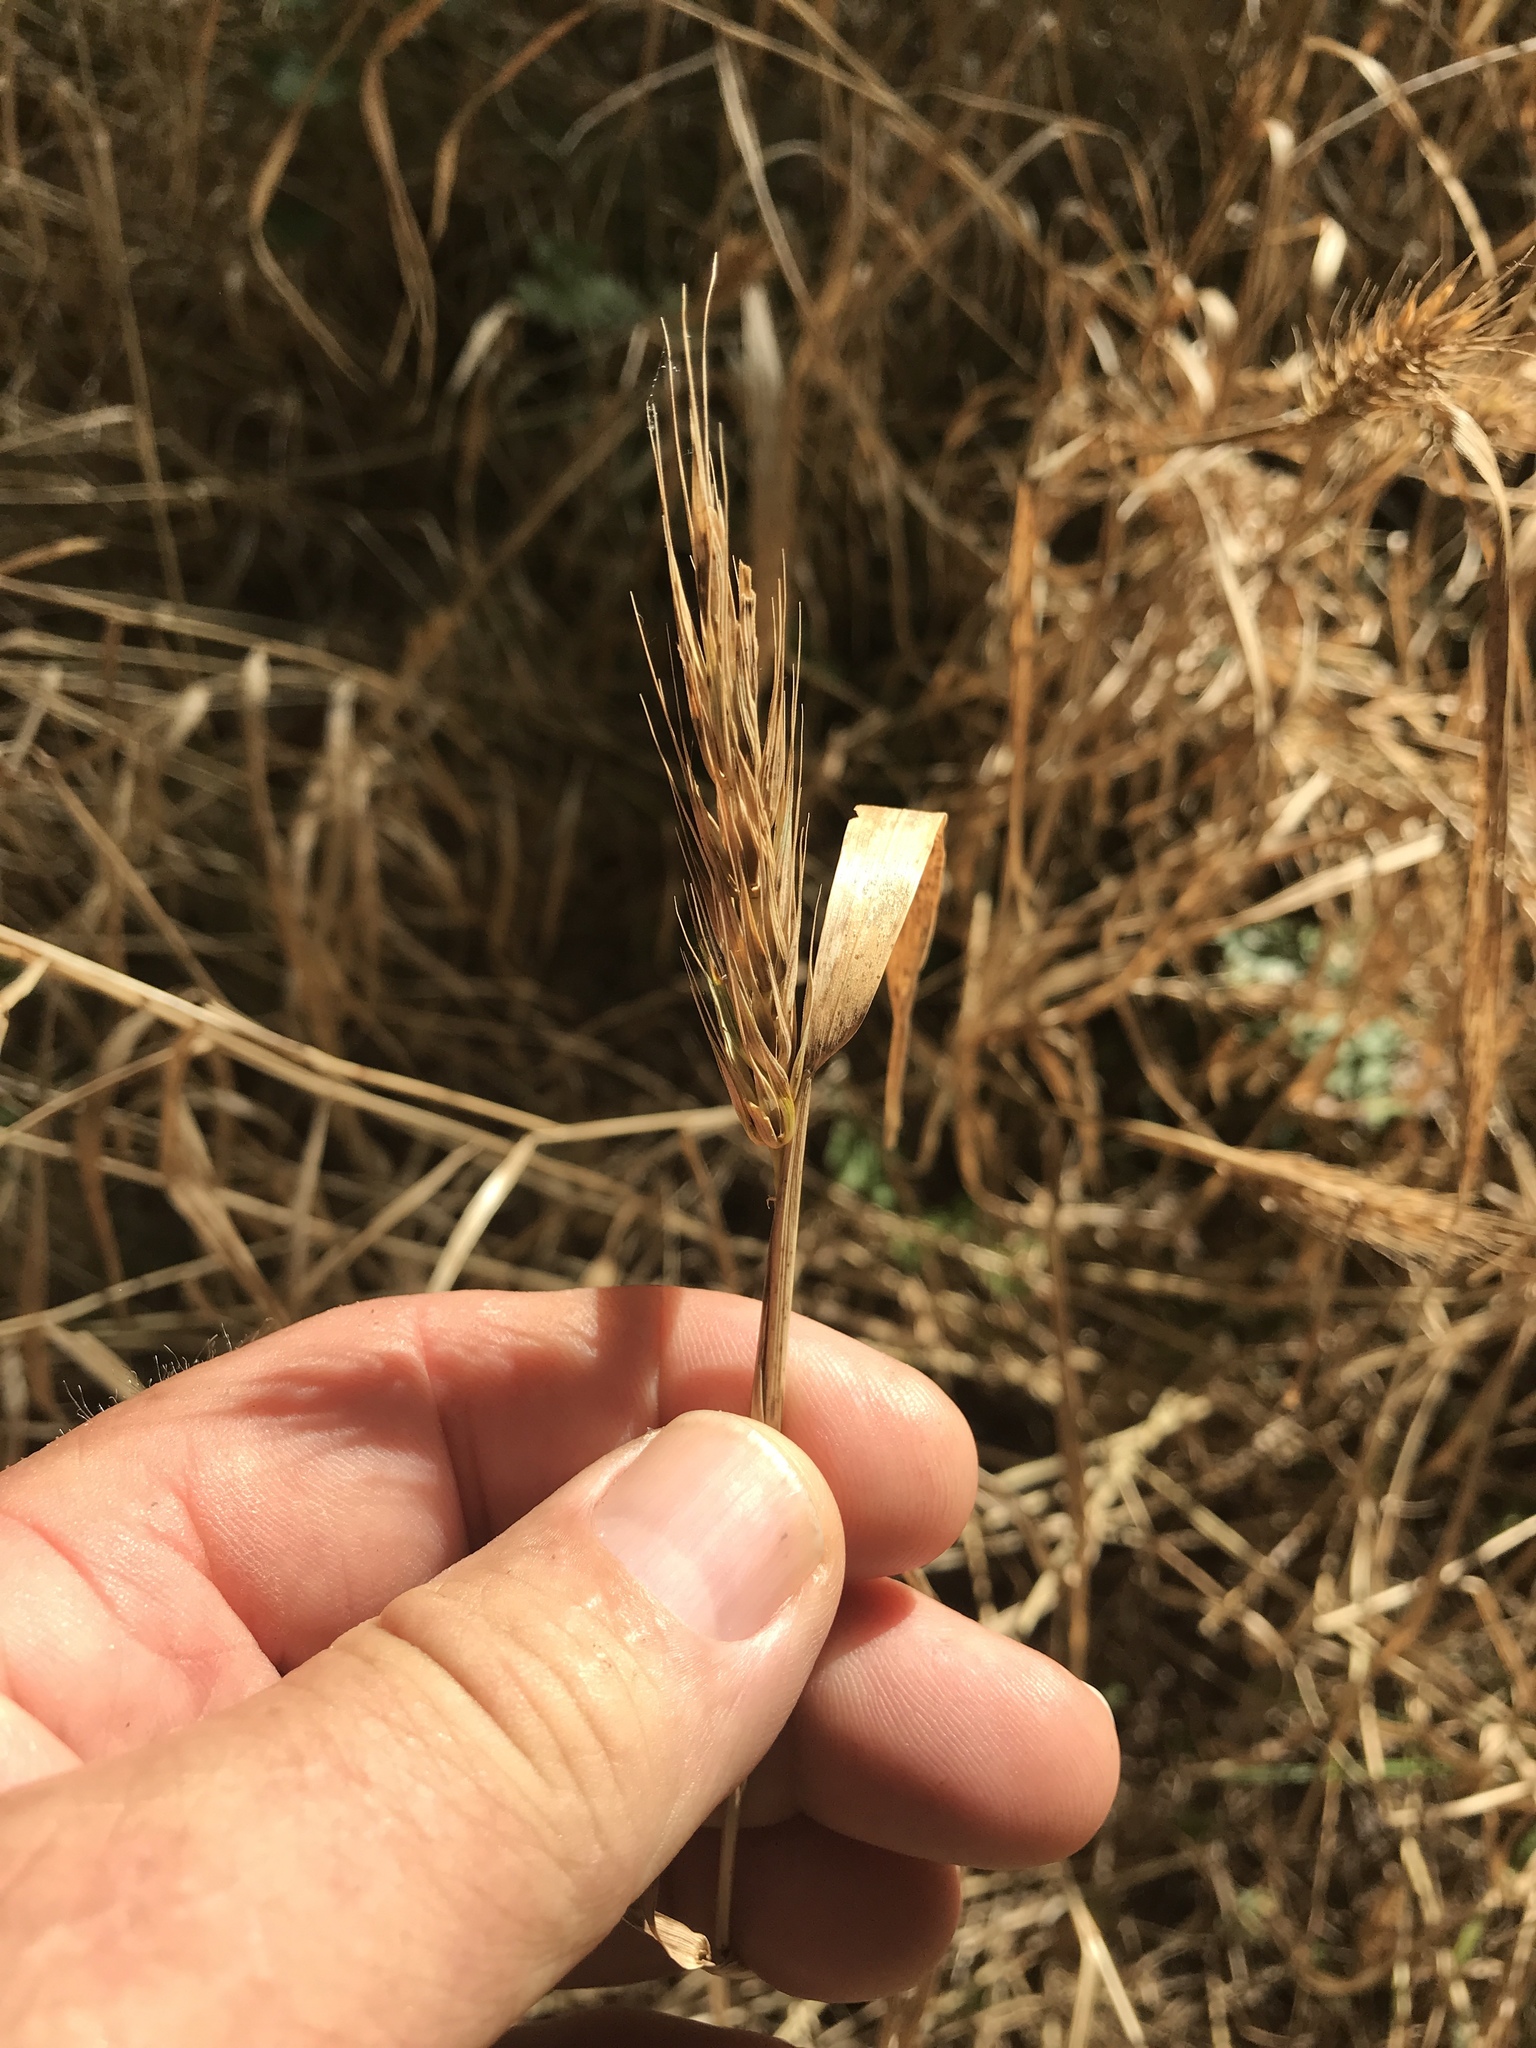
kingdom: Plantae
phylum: Tracheophyta
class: Liliopsida
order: Poales
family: Poaceae
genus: Elymus
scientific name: Elymus virginicus
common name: Common eastern wildrye
